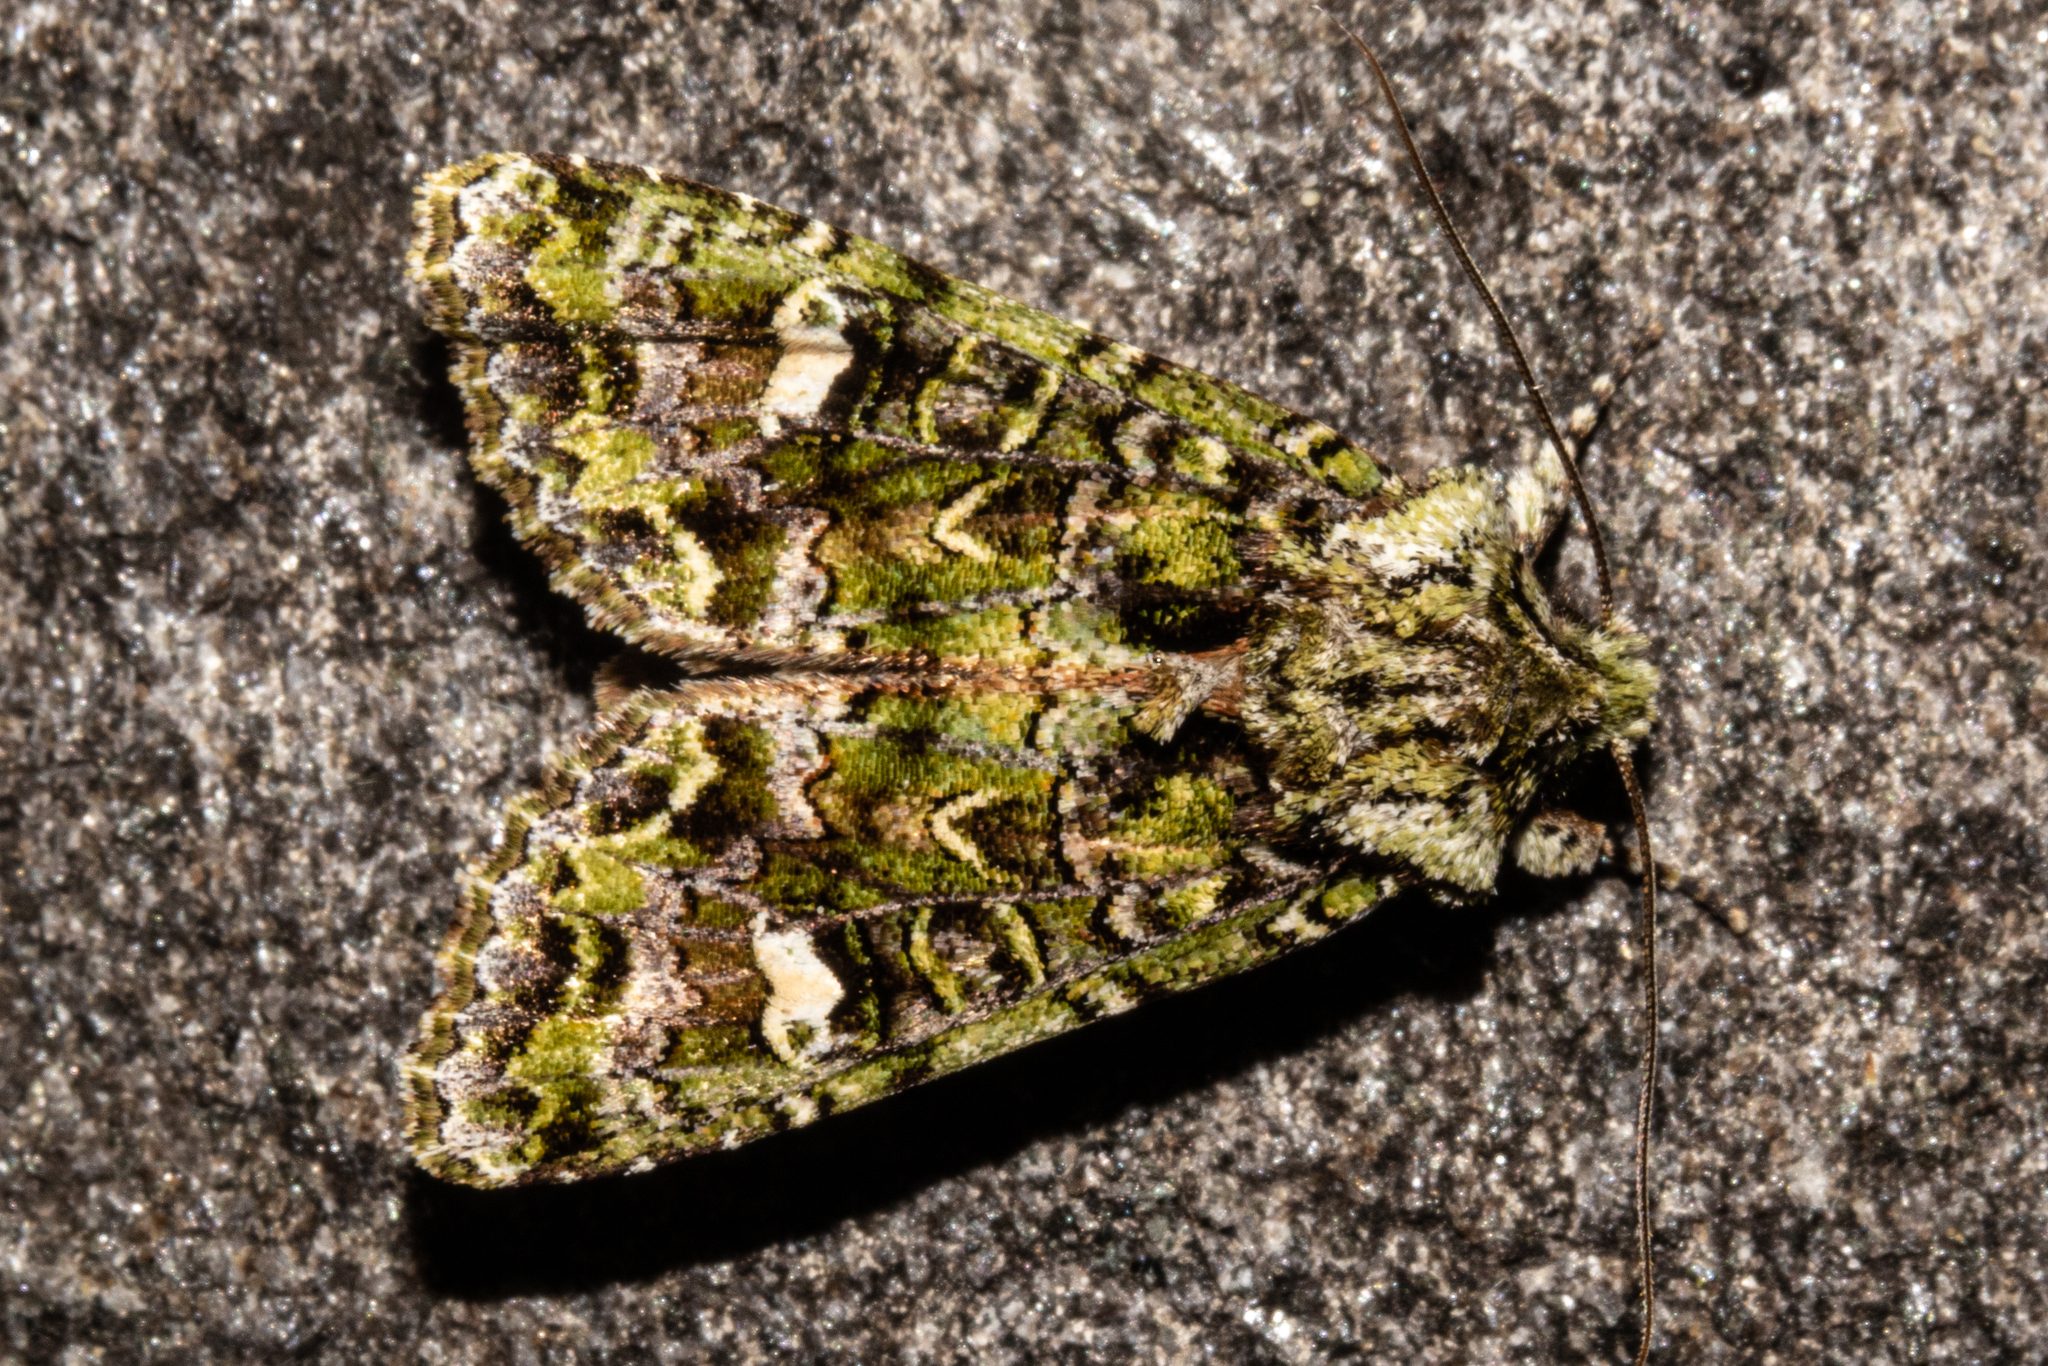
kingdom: Animalia
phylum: Arthropoda
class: Insecta
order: Lepidoptera
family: Noctuidae
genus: Ichneutica
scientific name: Ichneutica
